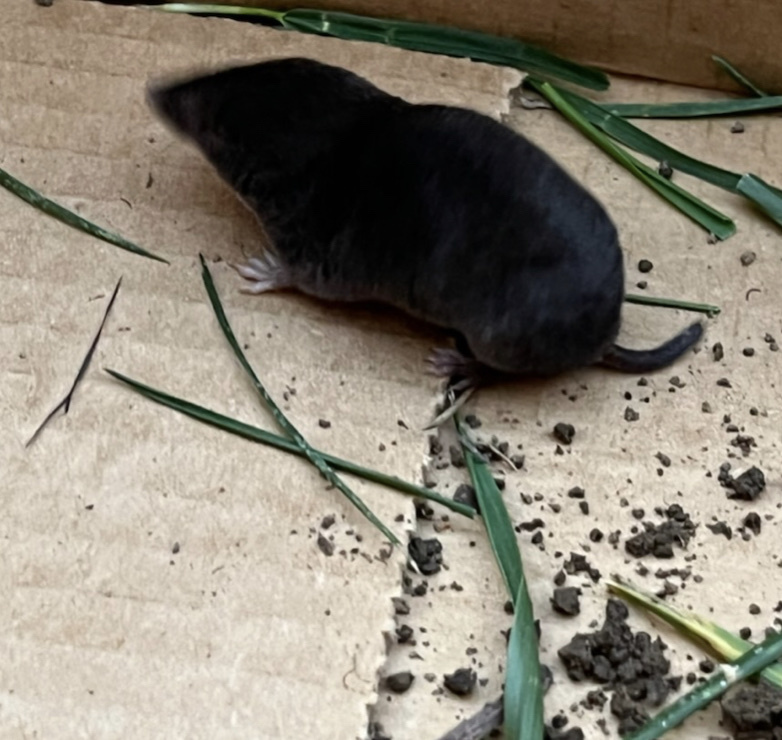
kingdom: Animalia
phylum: Chordata
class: Mammalia
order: Soricomorpha
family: Soricidae
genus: Blarina
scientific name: Blarina brevicauda
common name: Northern short-tailed shrew
